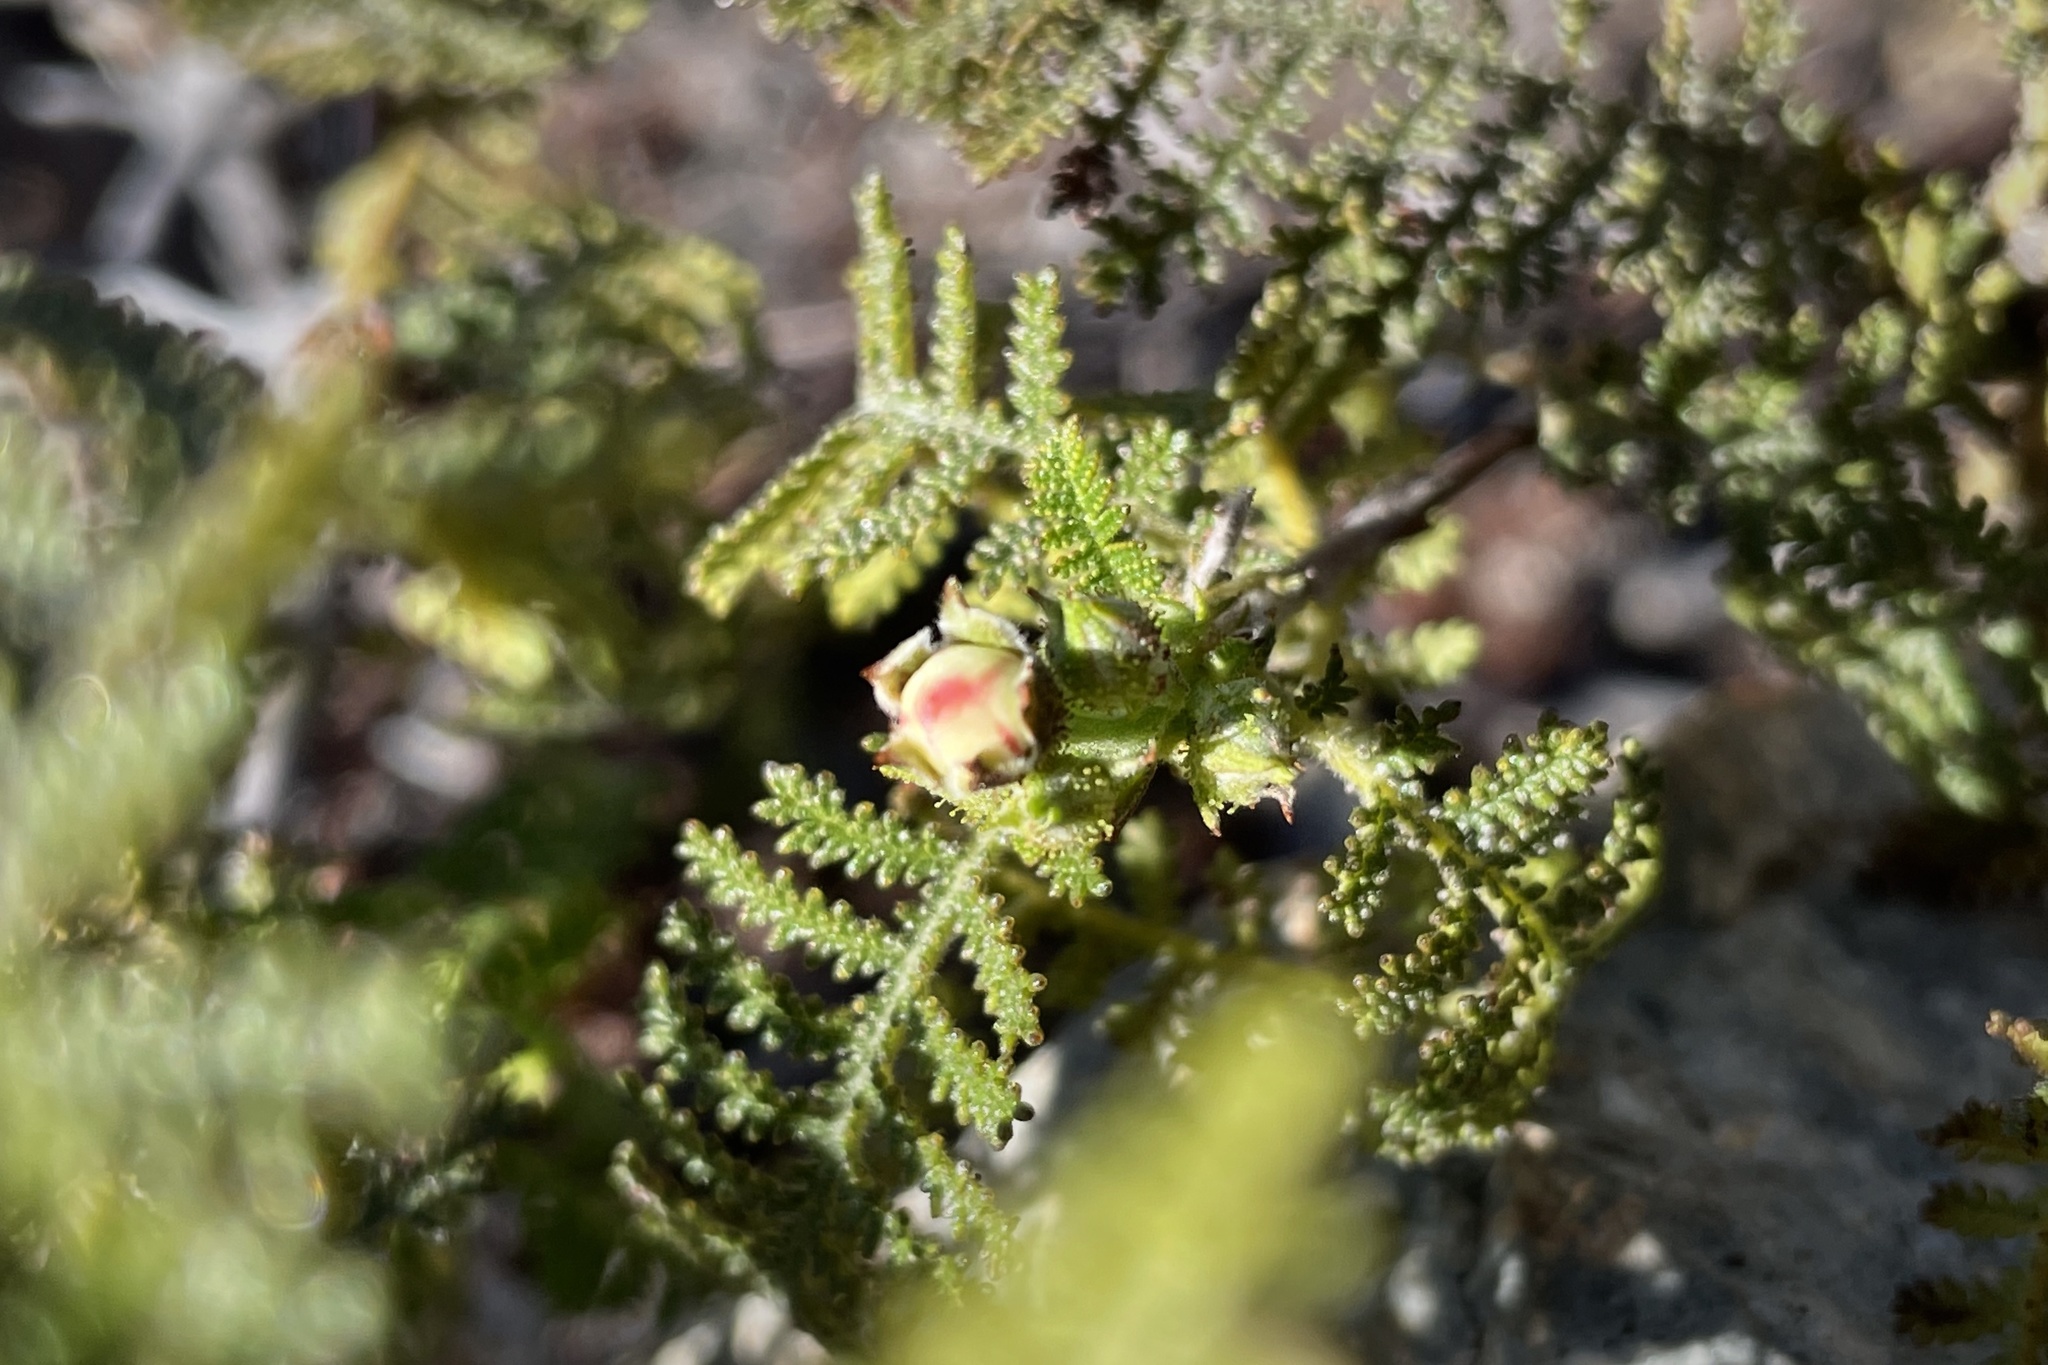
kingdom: Plantae
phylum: Tracheophyta
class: Magnoliopsida
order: Rosales
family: Rosaceae
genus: Chamaebatia
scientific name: Chamaebatia australis
